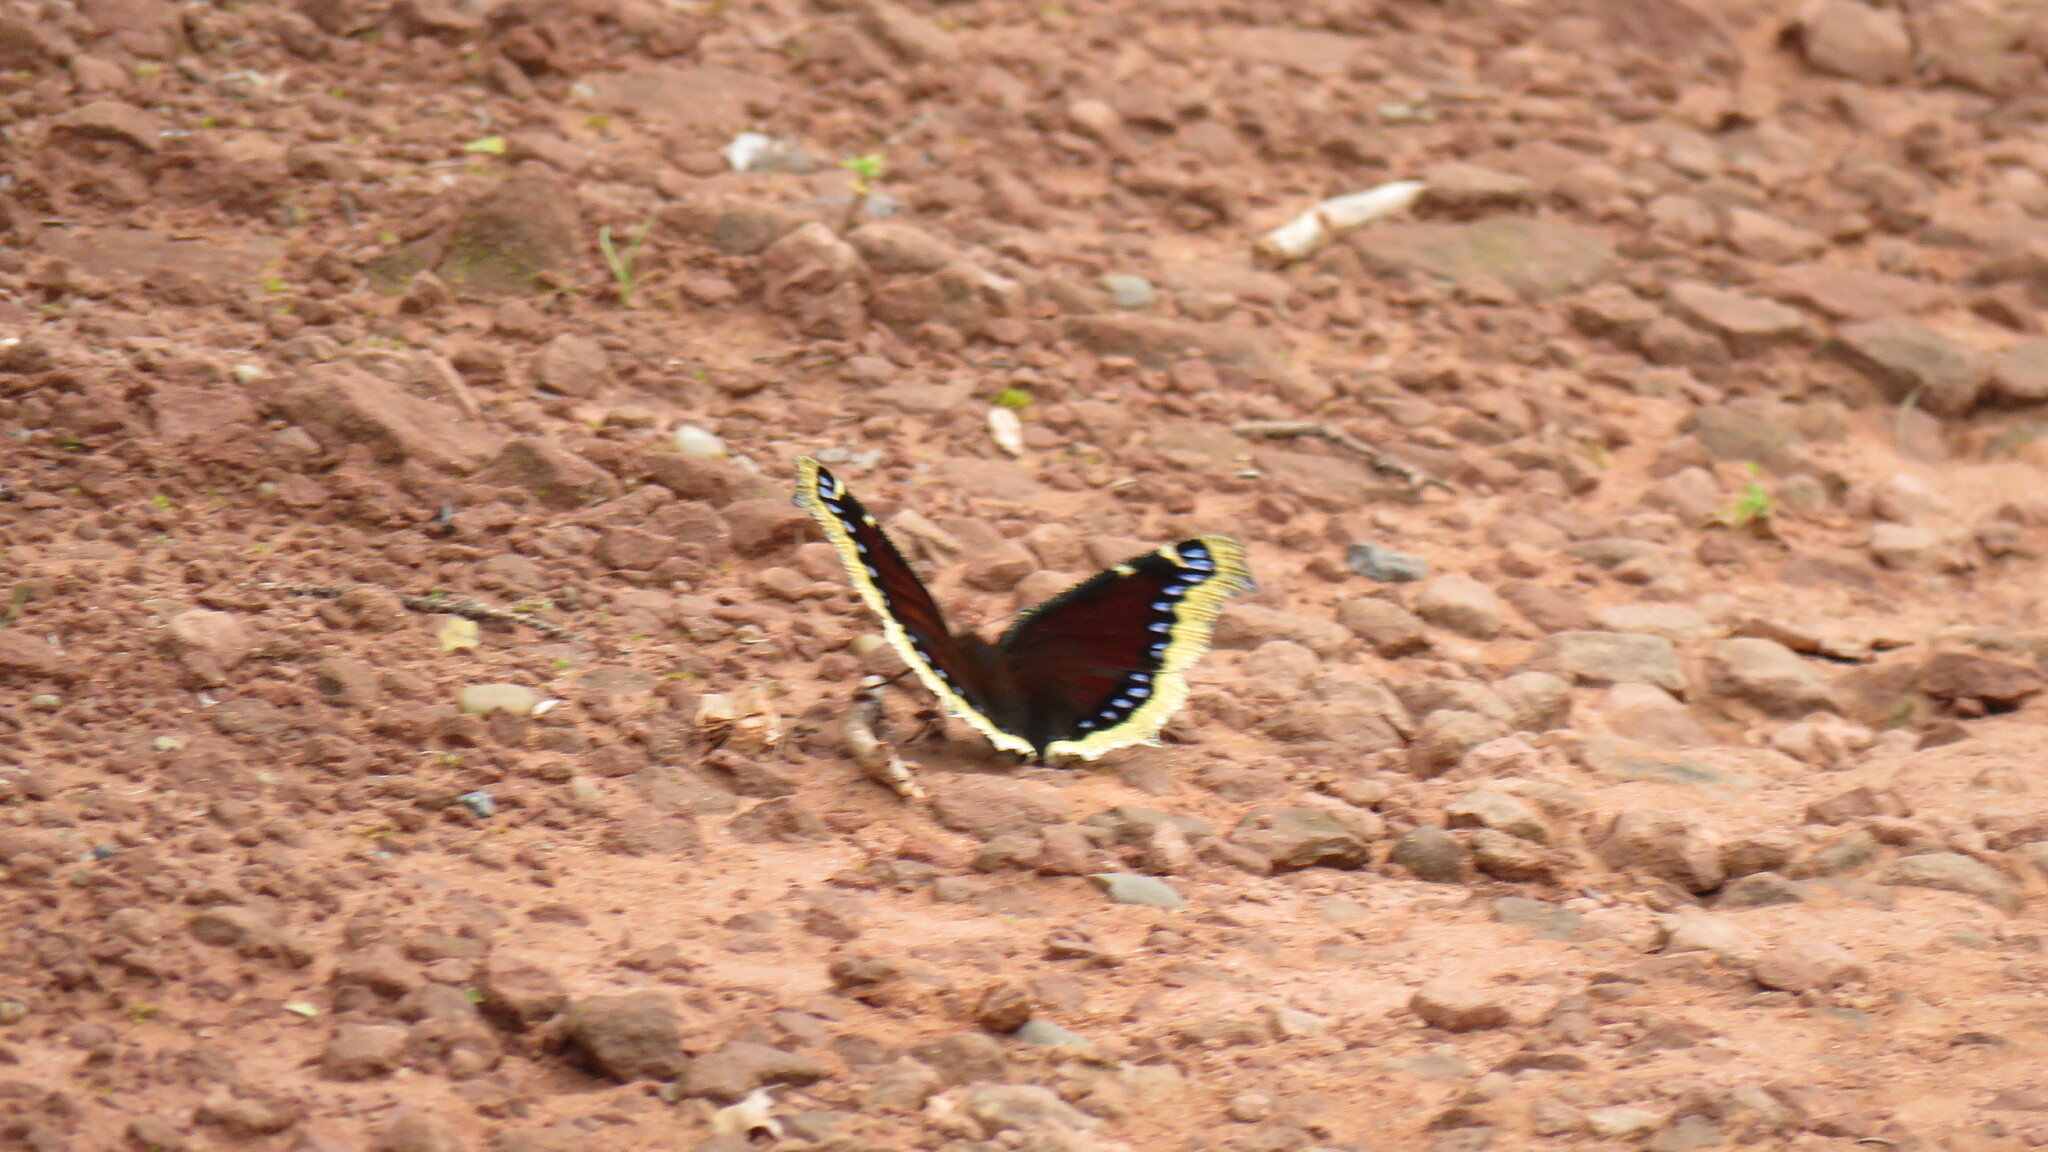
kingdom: Animalia
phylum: Arthropoda
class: Insecta
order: Lepidoptera
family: Nymphalidae
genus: Nymphalis
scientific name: Nymphalis antiopa
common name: Camberwell beauty
